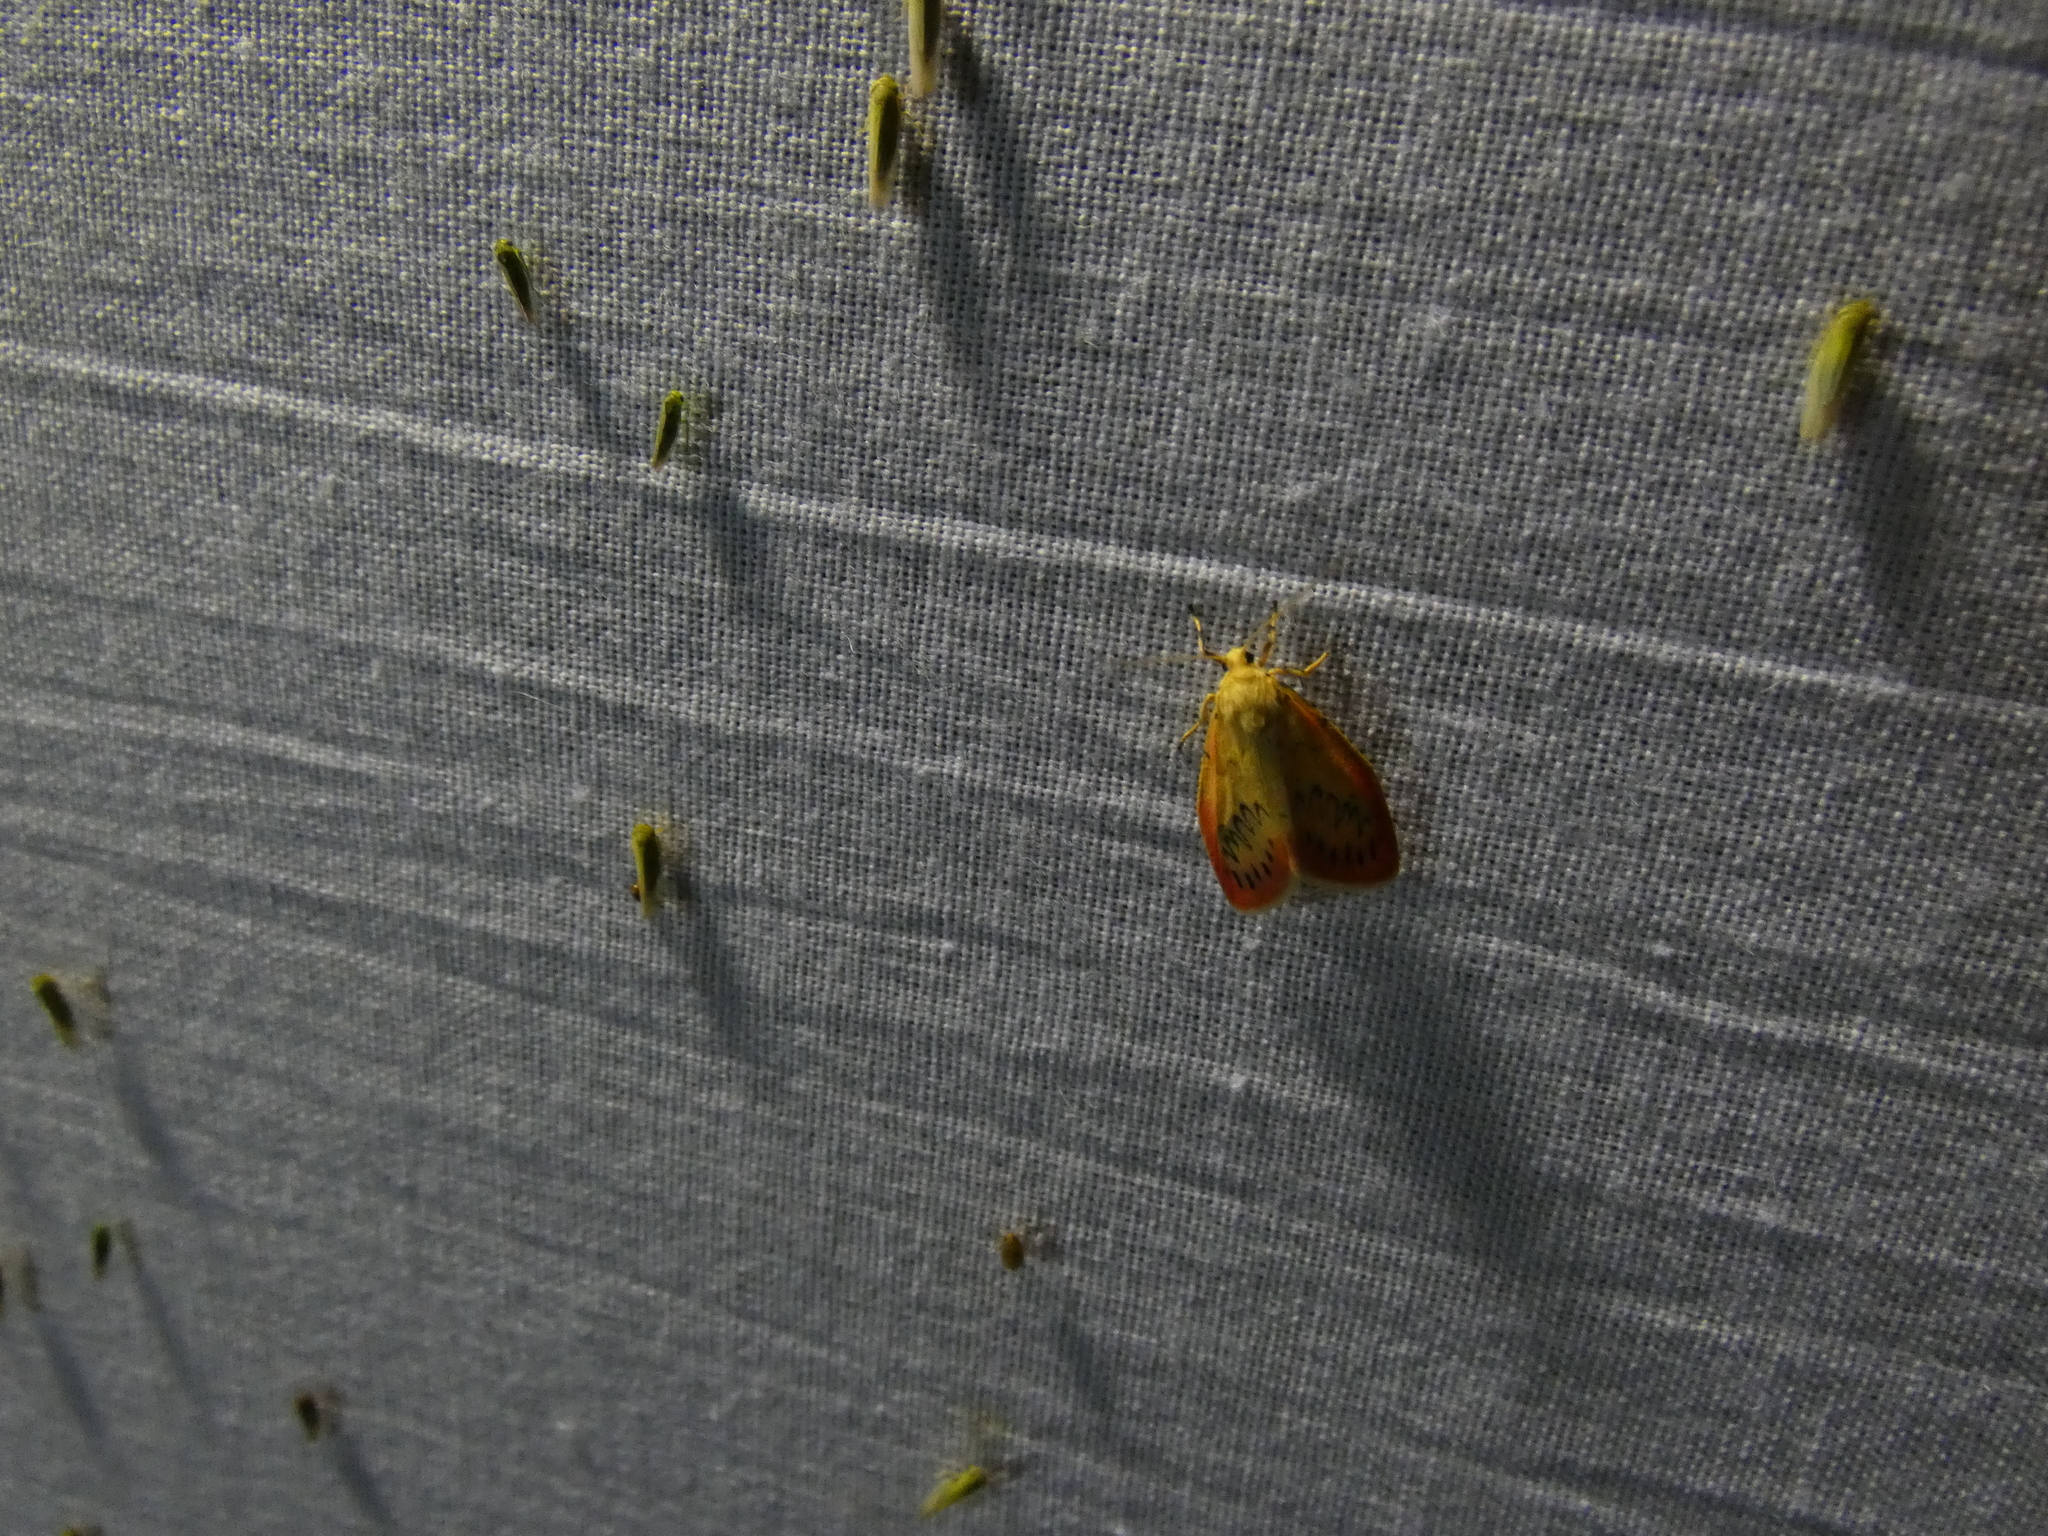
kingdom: Animalia
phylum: Arthropoda
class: Insecta
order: Lepidoptera
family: Erebidae
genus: Miltochrista
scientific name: Miltochrista miniata
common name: Rosy footman
